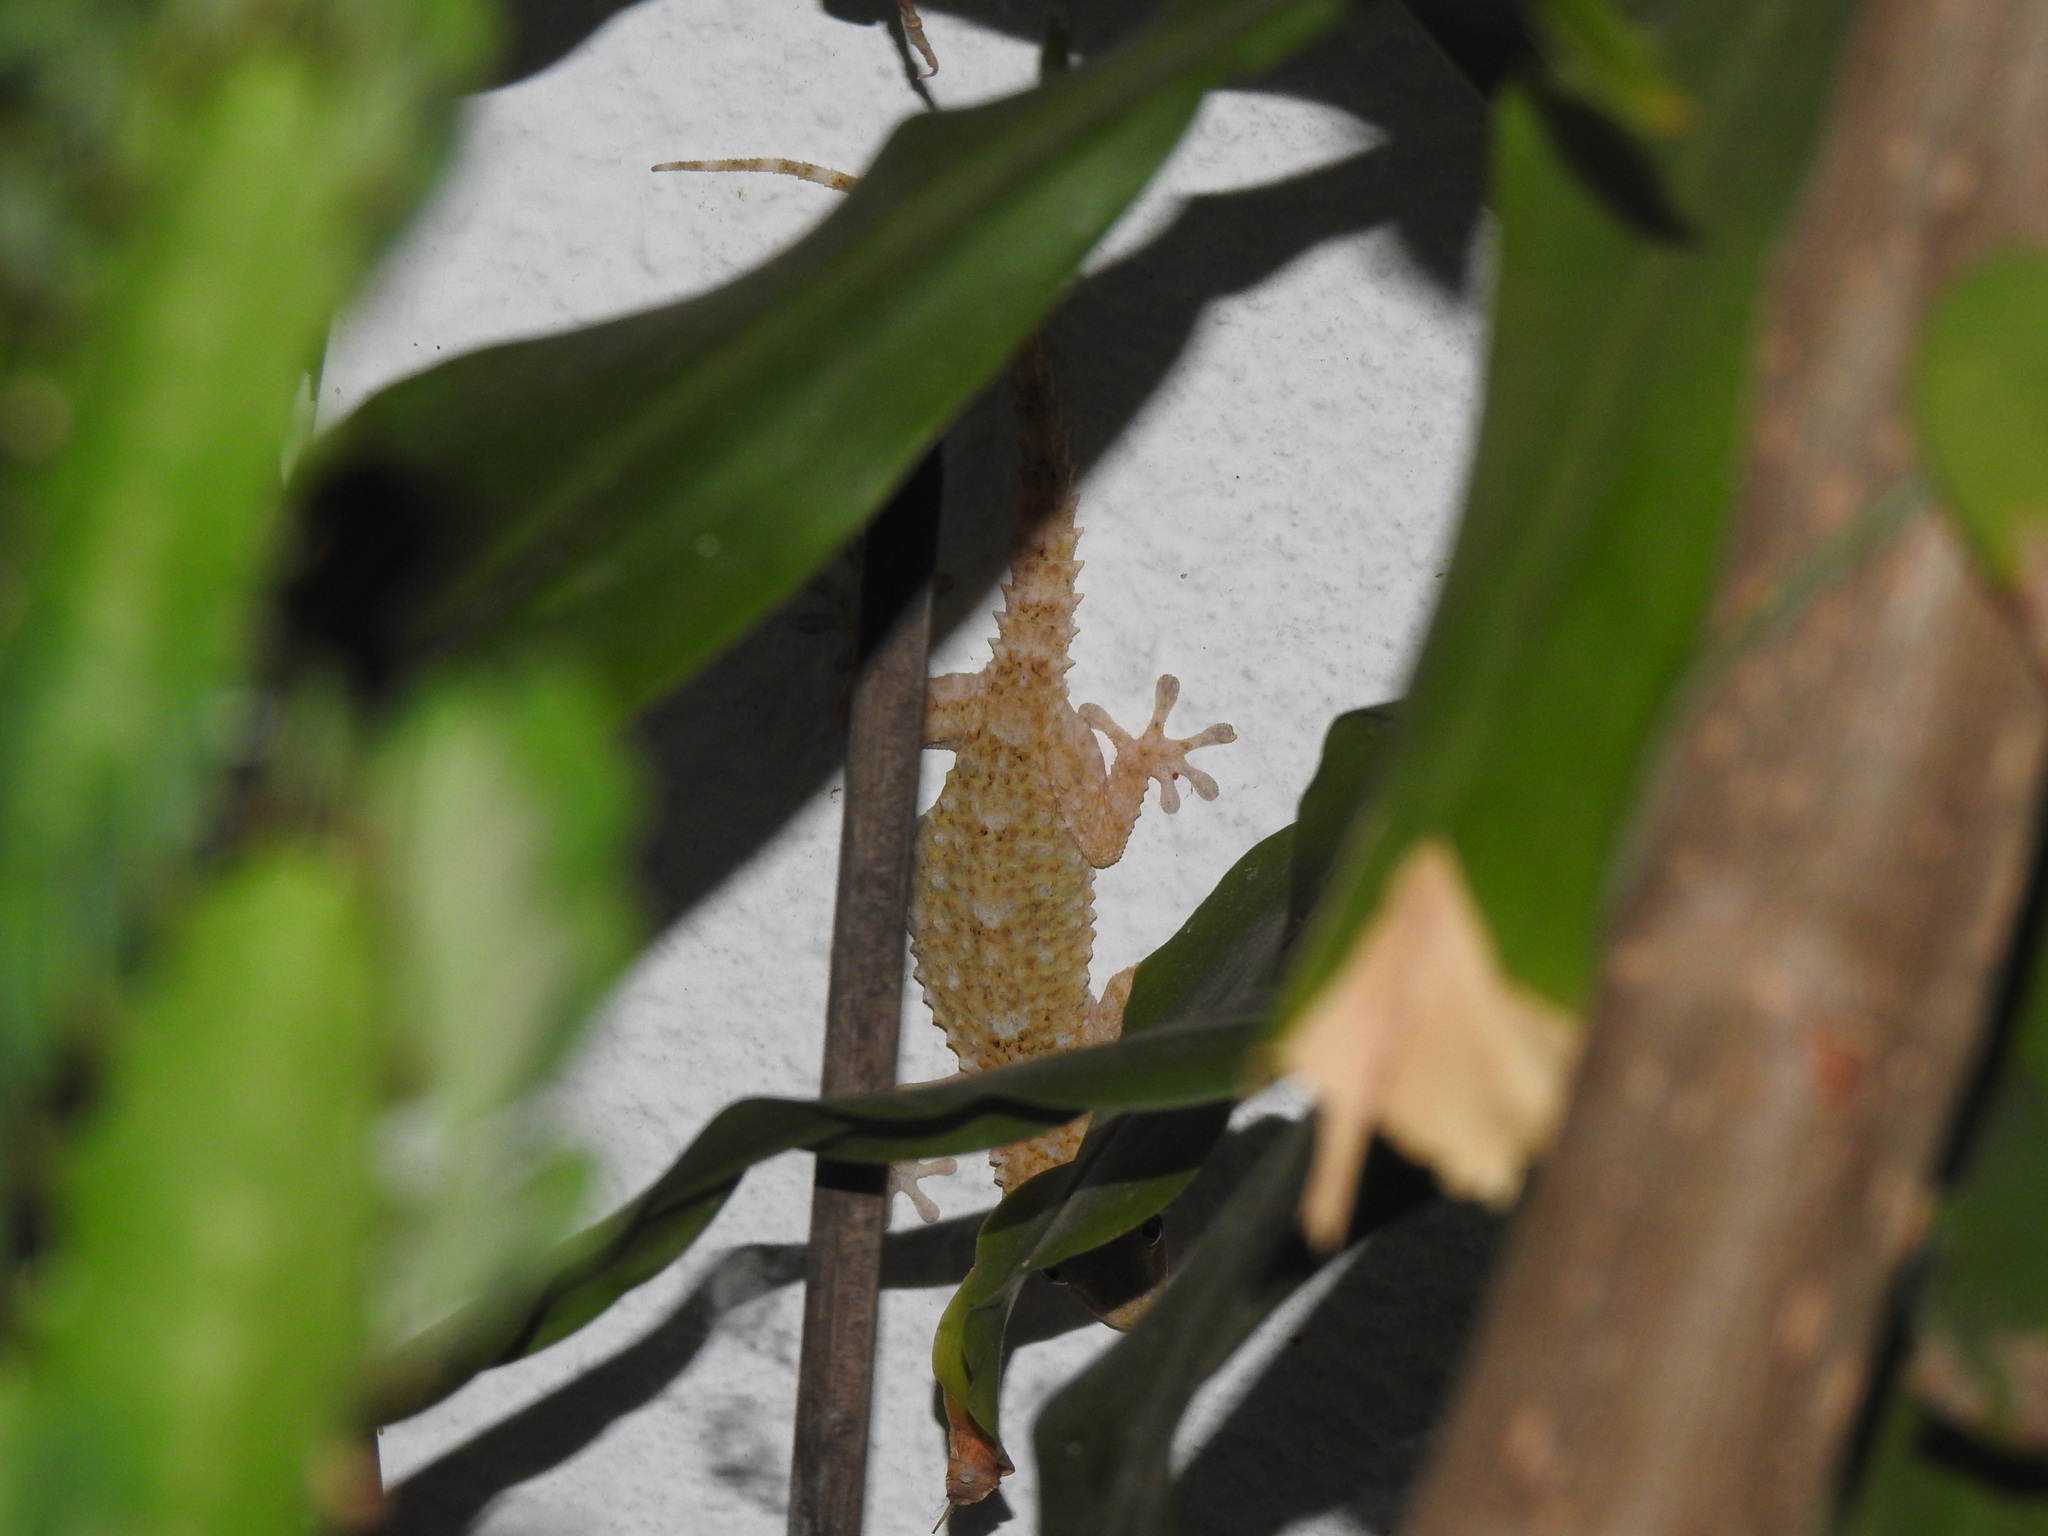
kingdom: Animalia
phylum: Chordata
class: Squamata
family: Phyllodactylidae
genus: Tarentola
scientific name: Tarentola mauritanica
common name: Moorish gecko
